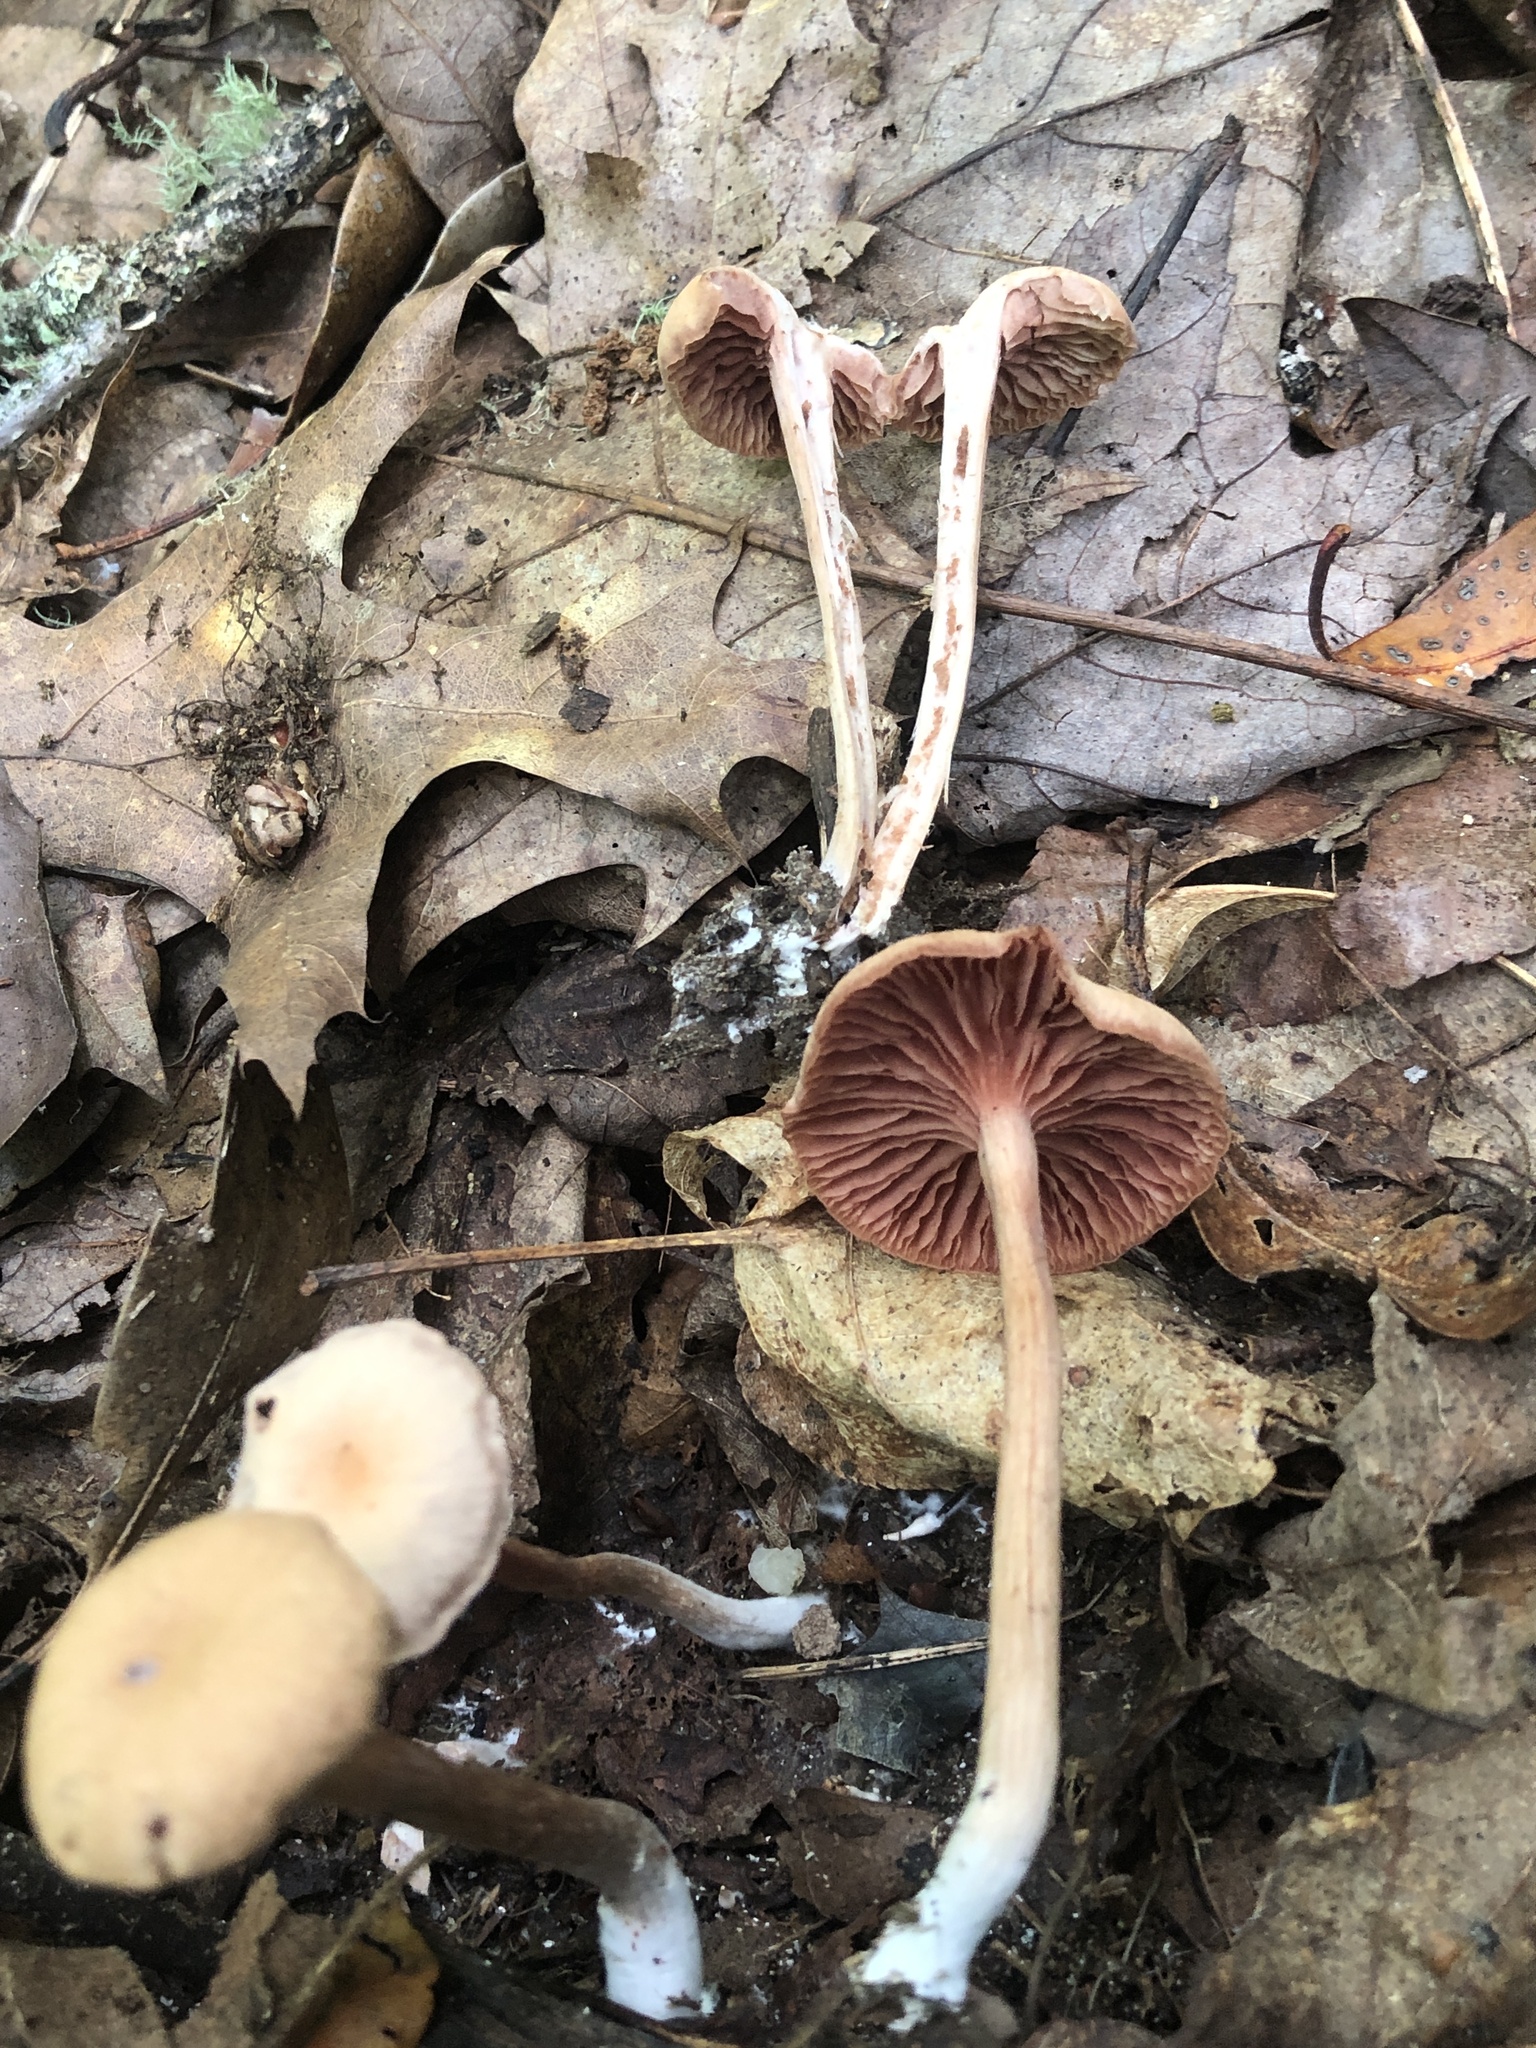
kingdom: Fungi
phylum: Basidiomycota
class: Agaricomycetes
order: Agaricales
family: Hydnangiaceae
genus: Laccaria
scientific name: Laccaria laccata
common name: Deceiver
